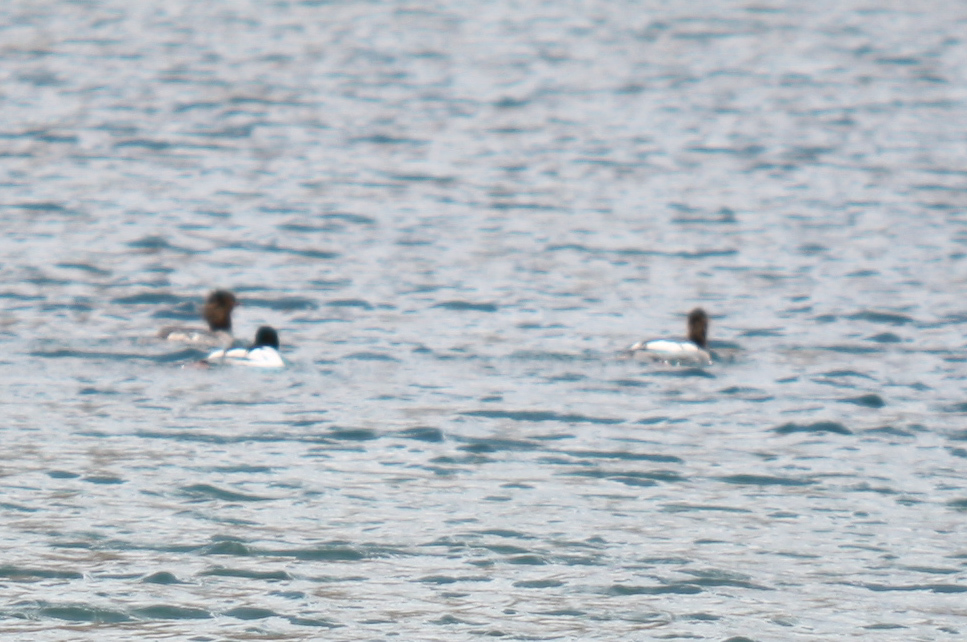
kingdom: Animalia
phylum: Chordata
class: Aves
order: Anseriformes
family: Anatidae
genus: Mergus
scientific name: Mergus merganser
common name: Common merganser
